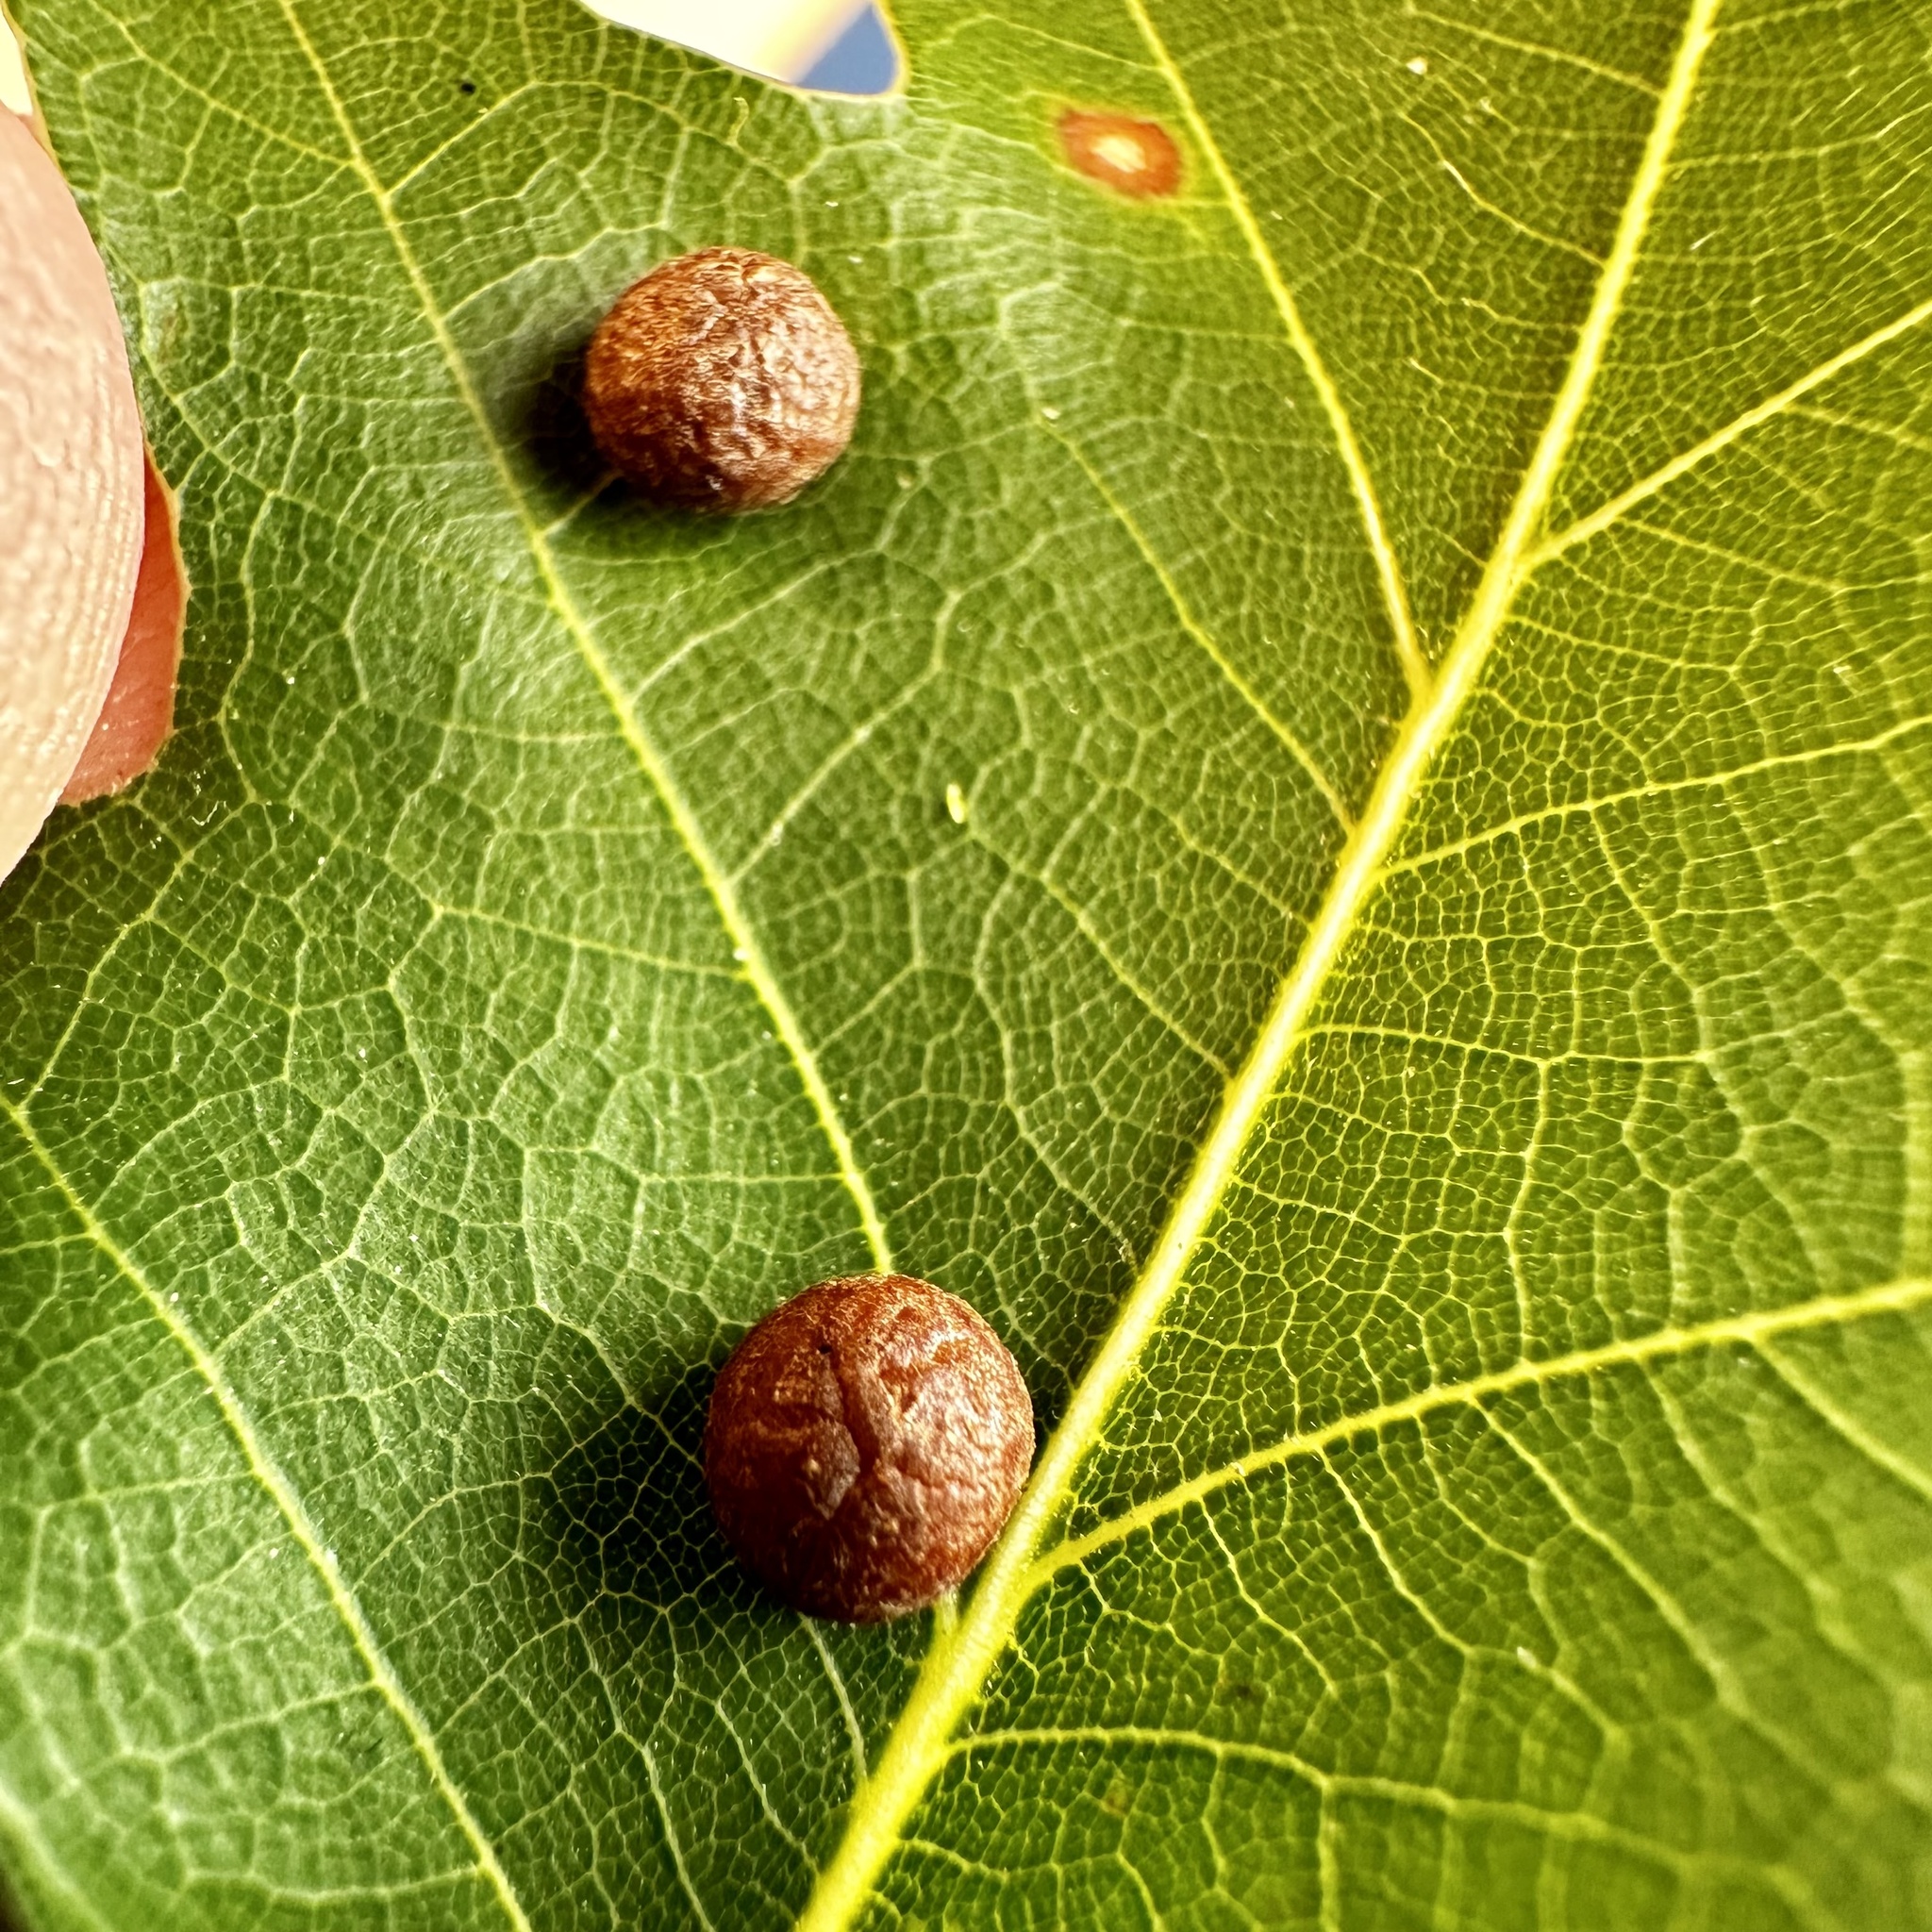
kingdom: Animalia
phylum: Arthropoda
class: Insecta
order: Diptera
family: Cecidomyiidae
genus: Polystepha
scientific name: Polystepha pilulae
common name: Oak leaf gall midge
